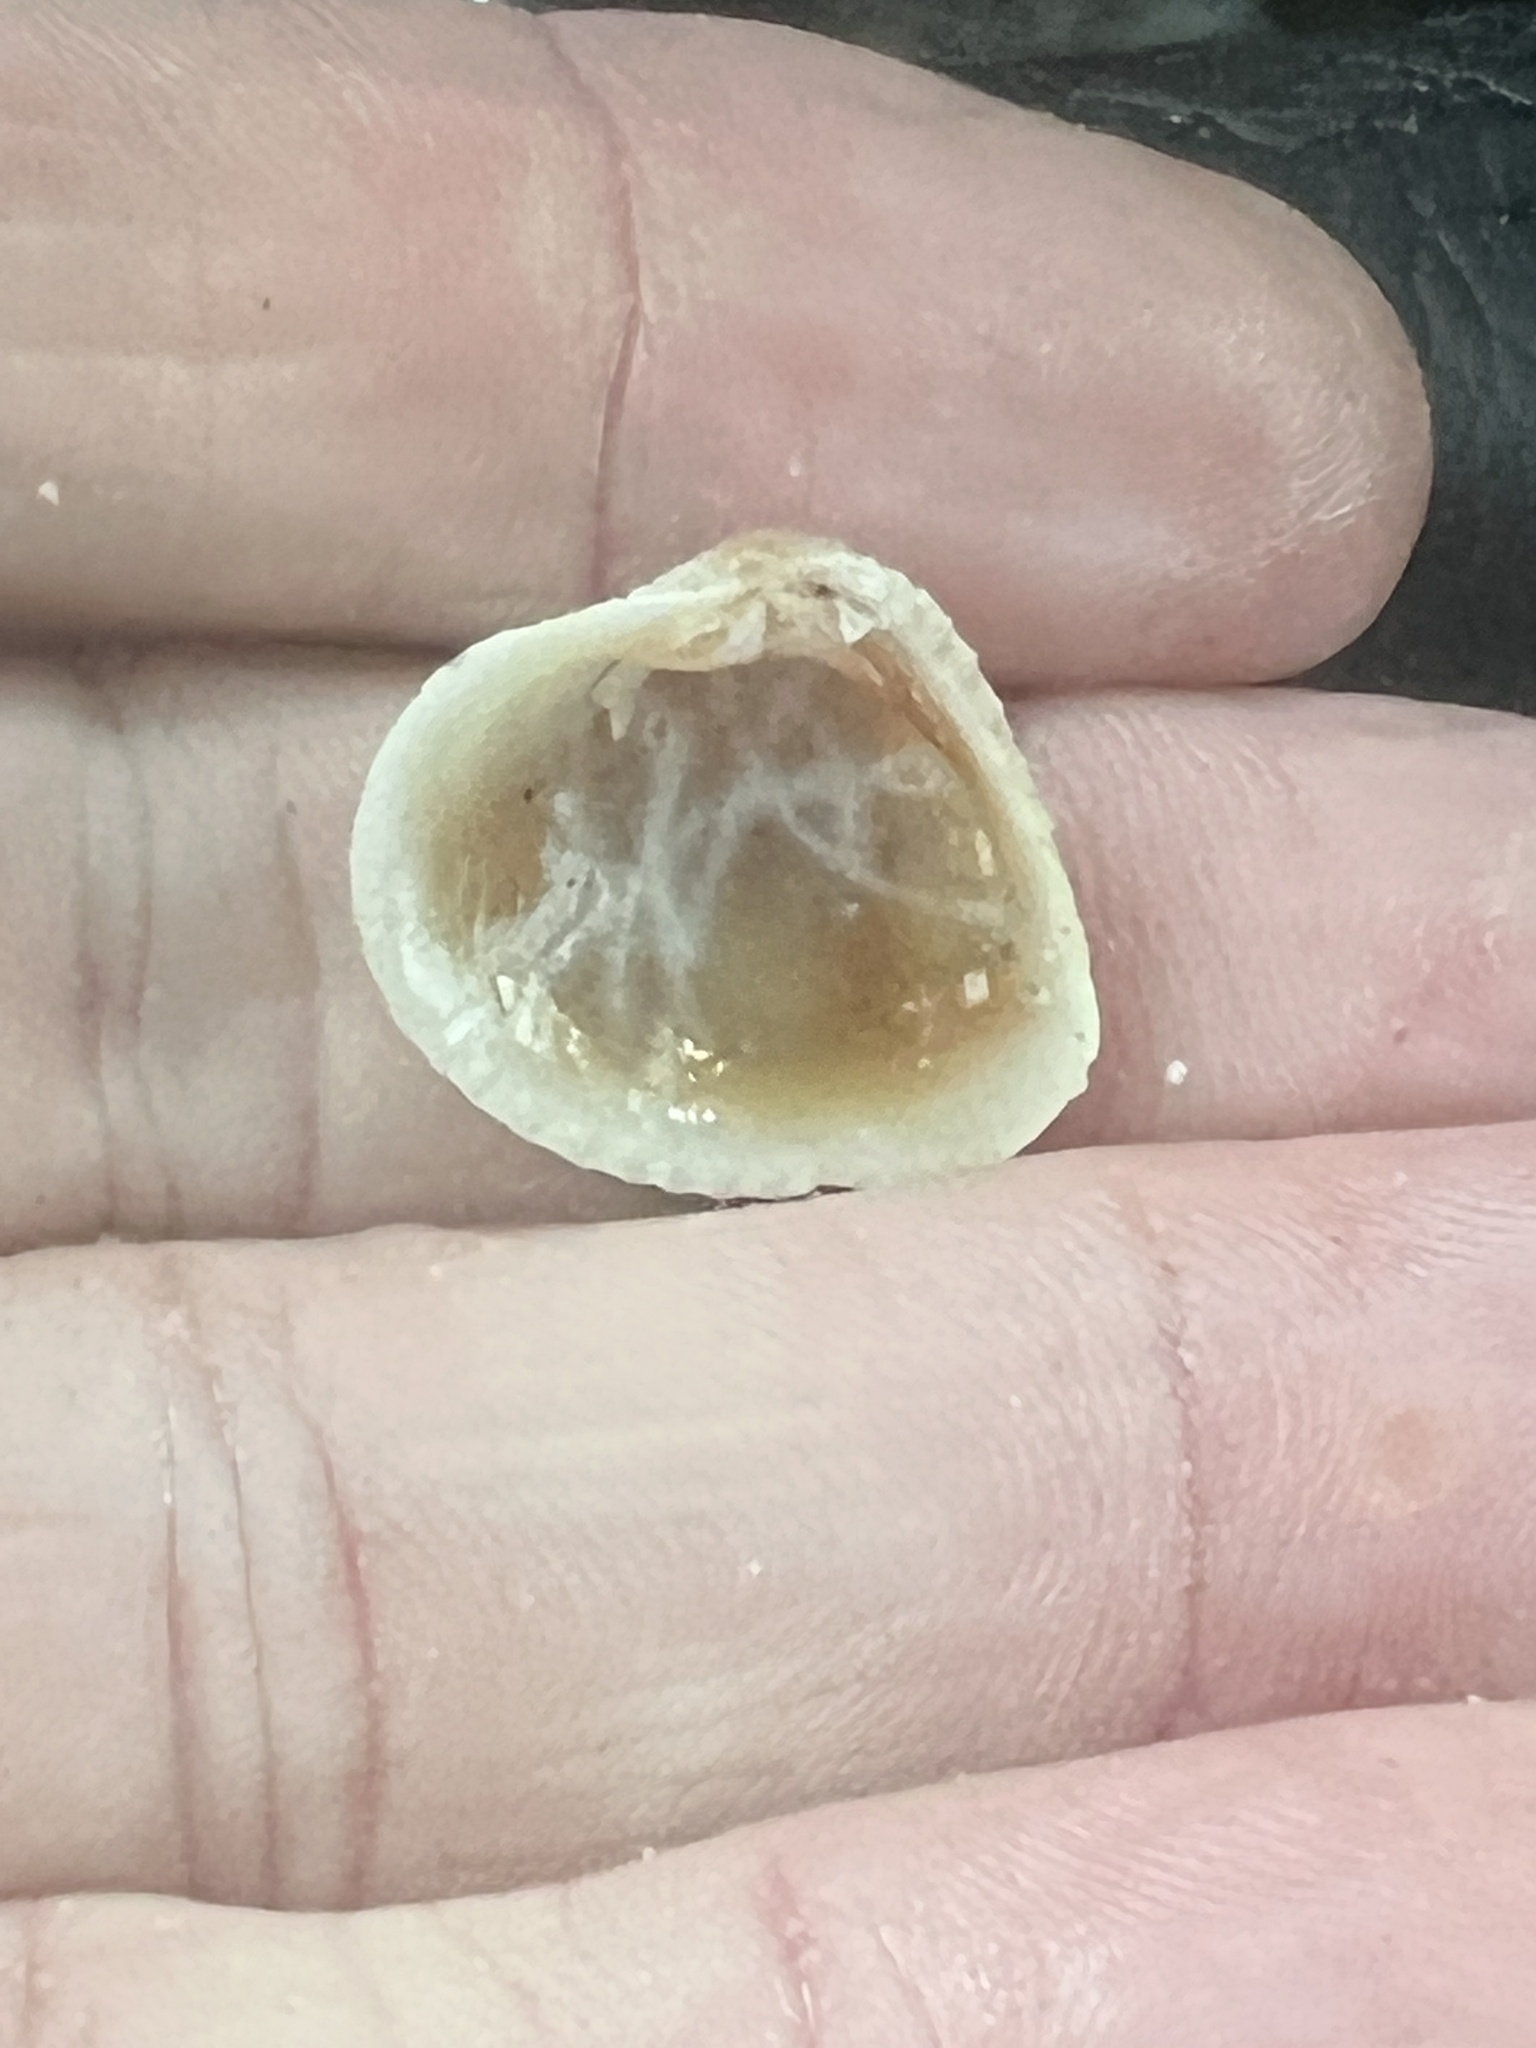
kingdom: Animalia
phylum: Mollusca
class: Bivalvia
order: Venerida
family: Veneridae
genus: Chione
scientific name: Chione elevata
